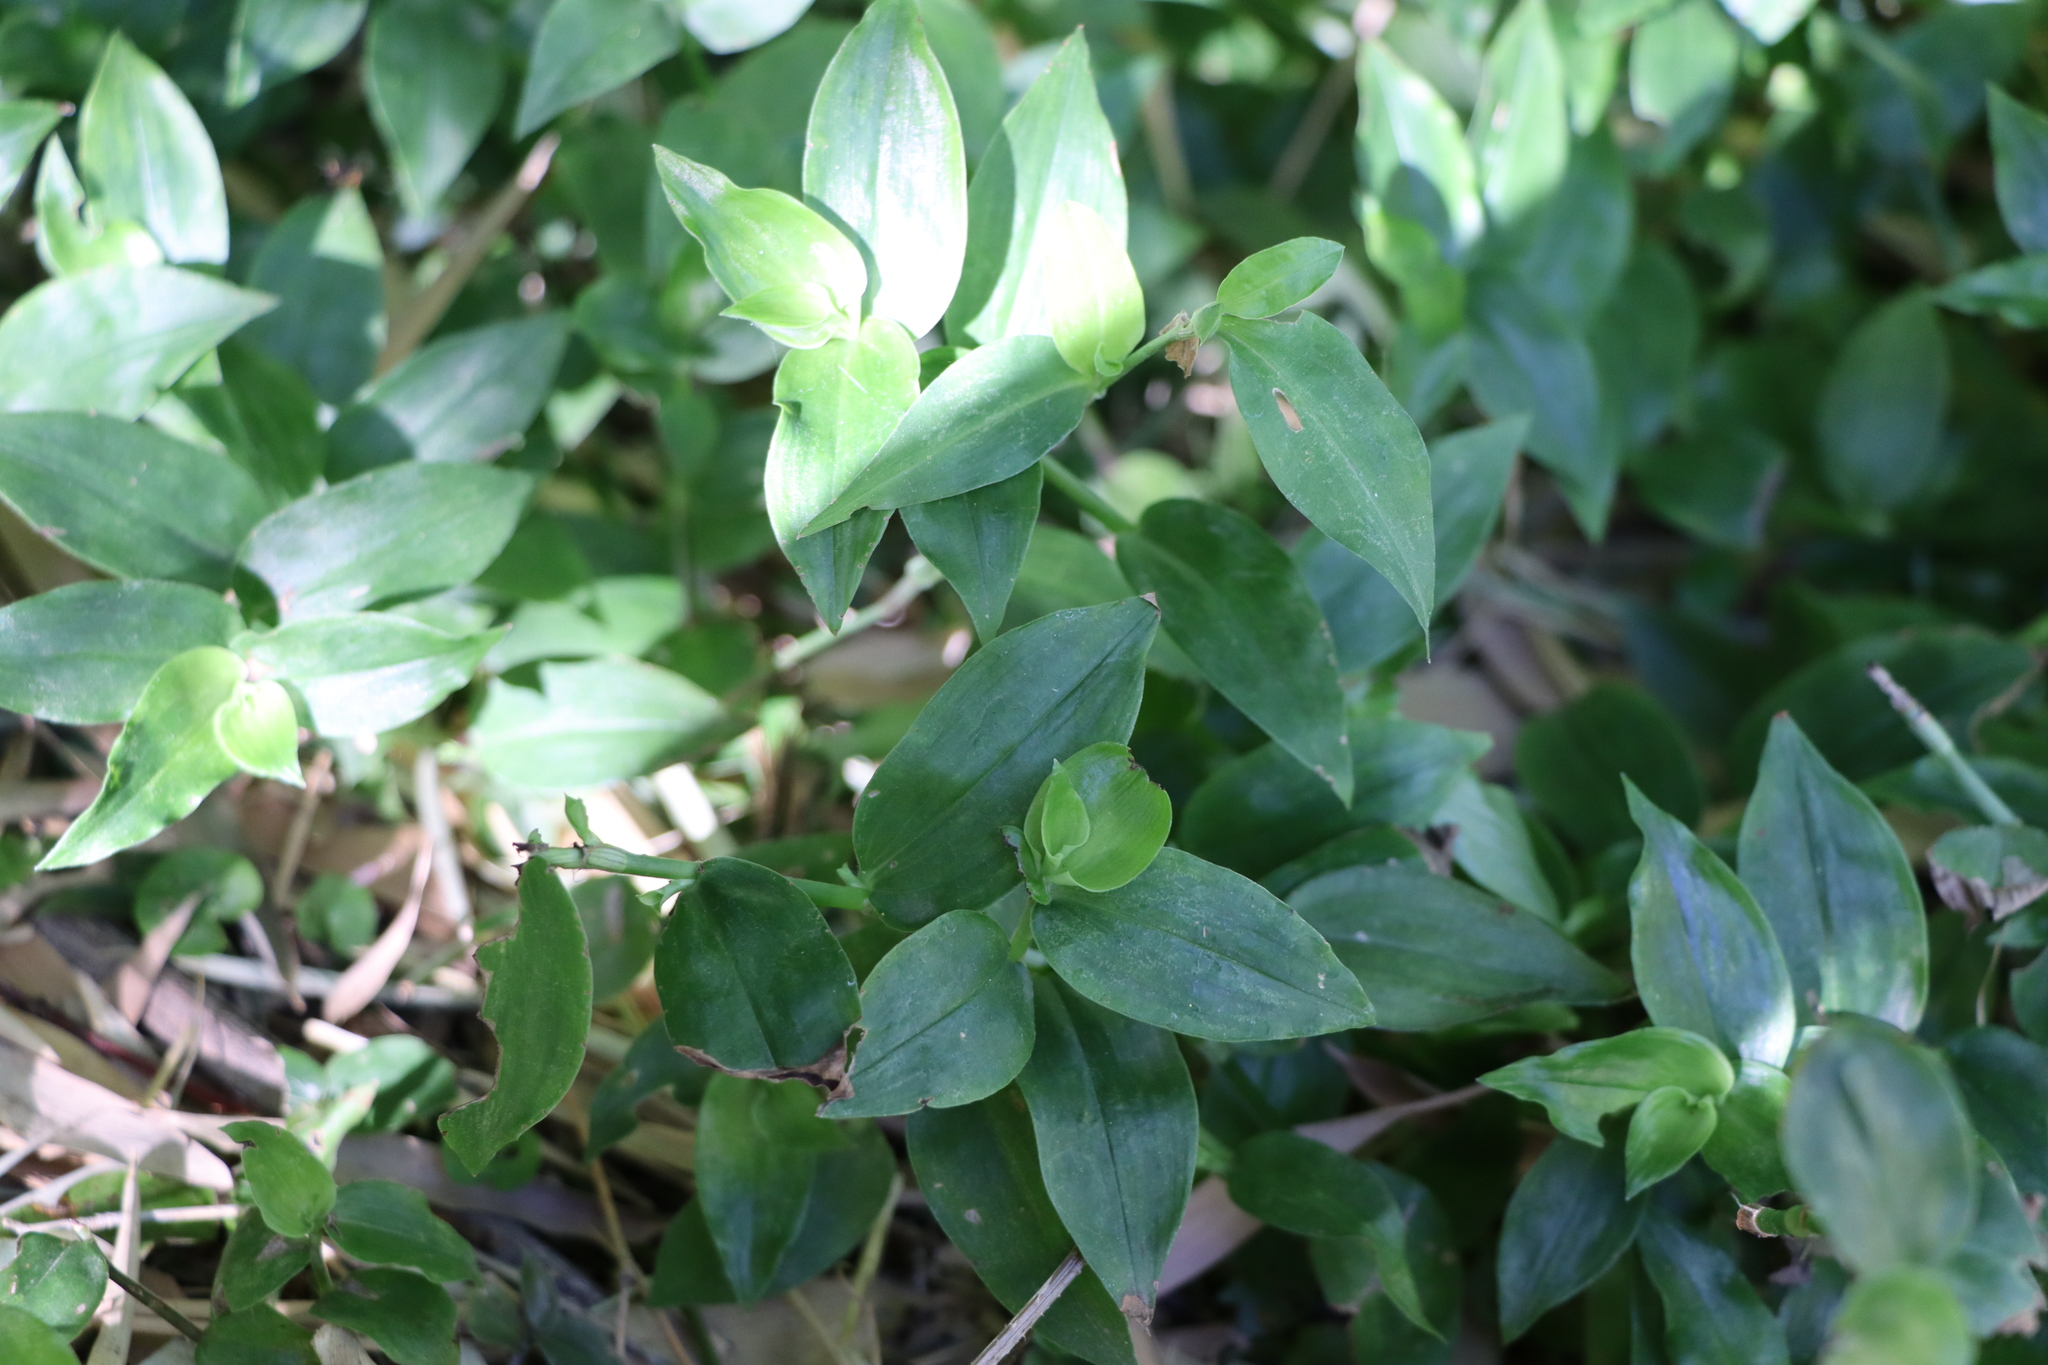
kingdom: Plantae
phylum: Tracheophyta
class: Liliopsida
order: Commelinales
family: Commelinaceae
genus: Tradescantia
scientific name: Tradescantia fluminensis
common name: Wandering-jew
